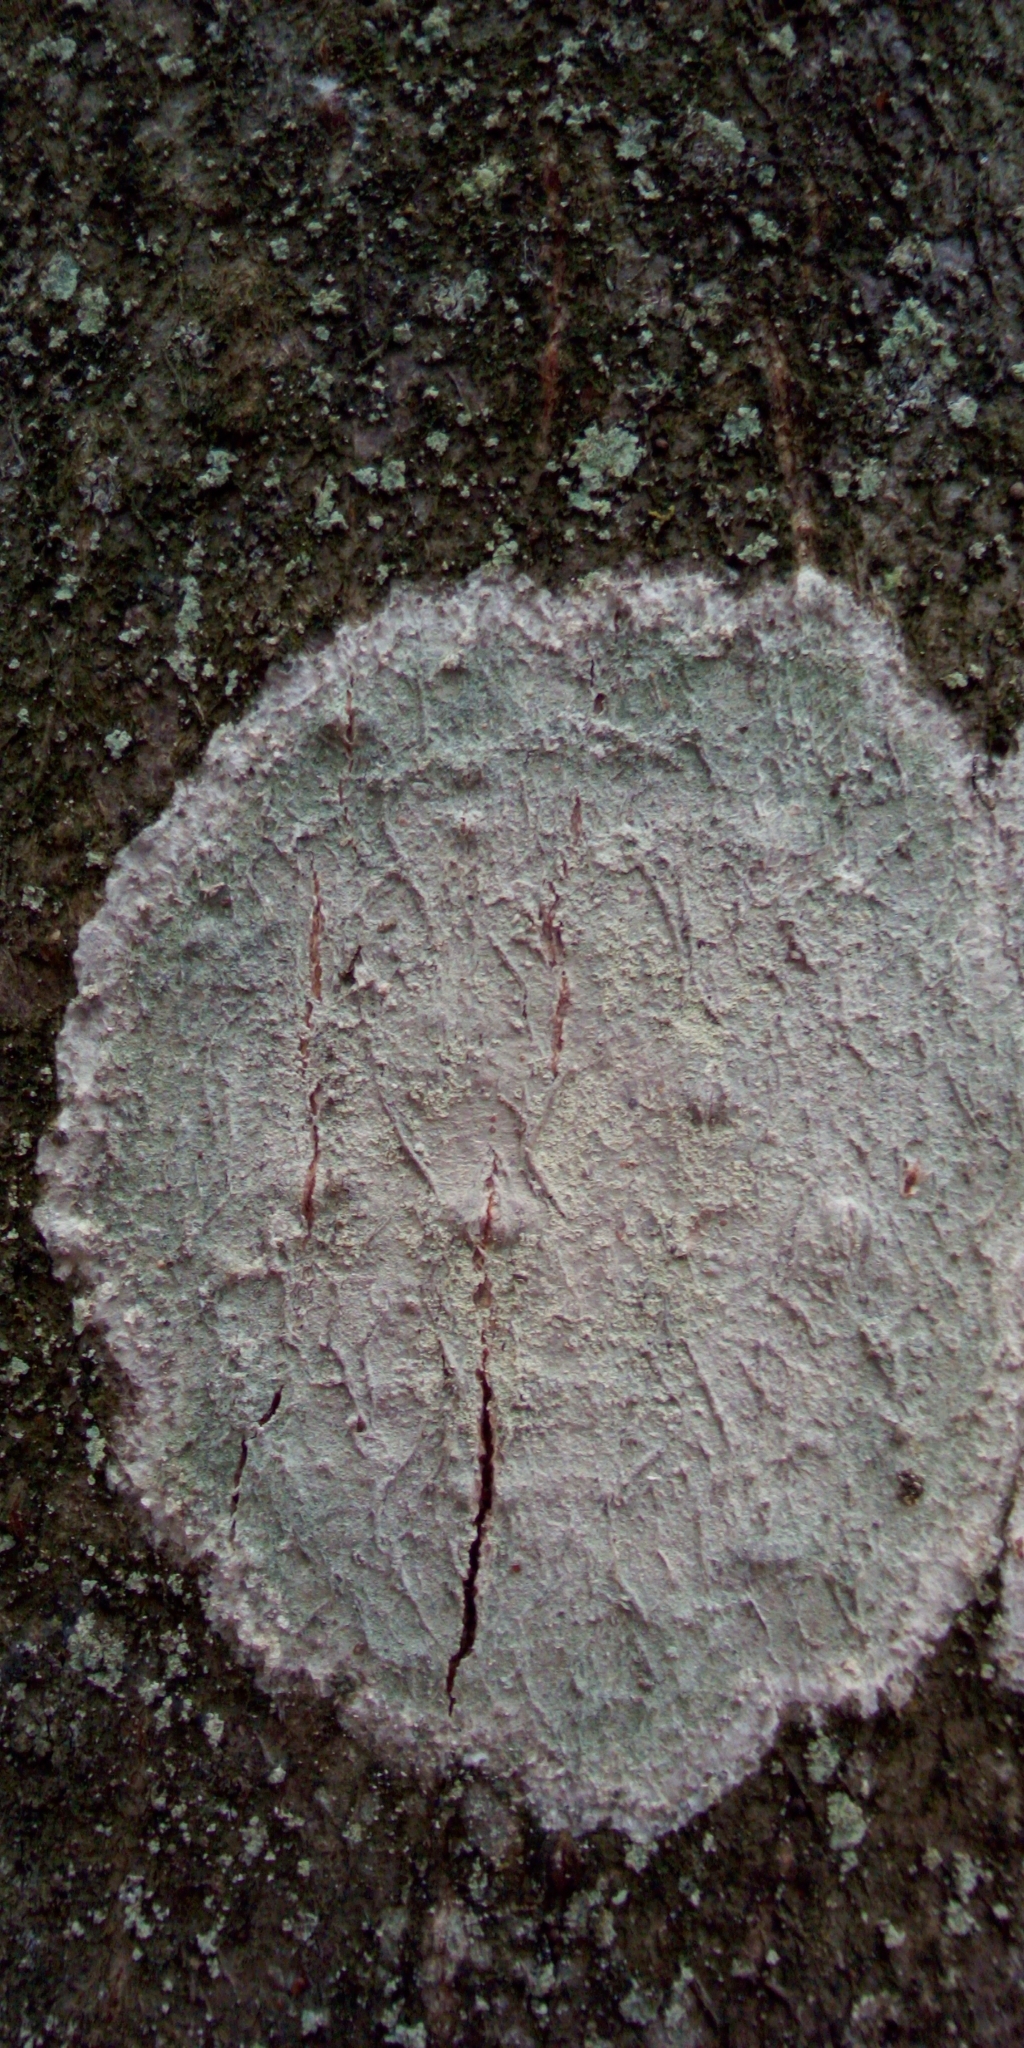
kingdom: Fungi
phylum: Ascomycota
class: Lecanoromycetes
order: Ostropales
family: Phlyctidaceae
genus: Phlyctis
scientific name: Phlyctis argena
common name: Whitewash lichen
